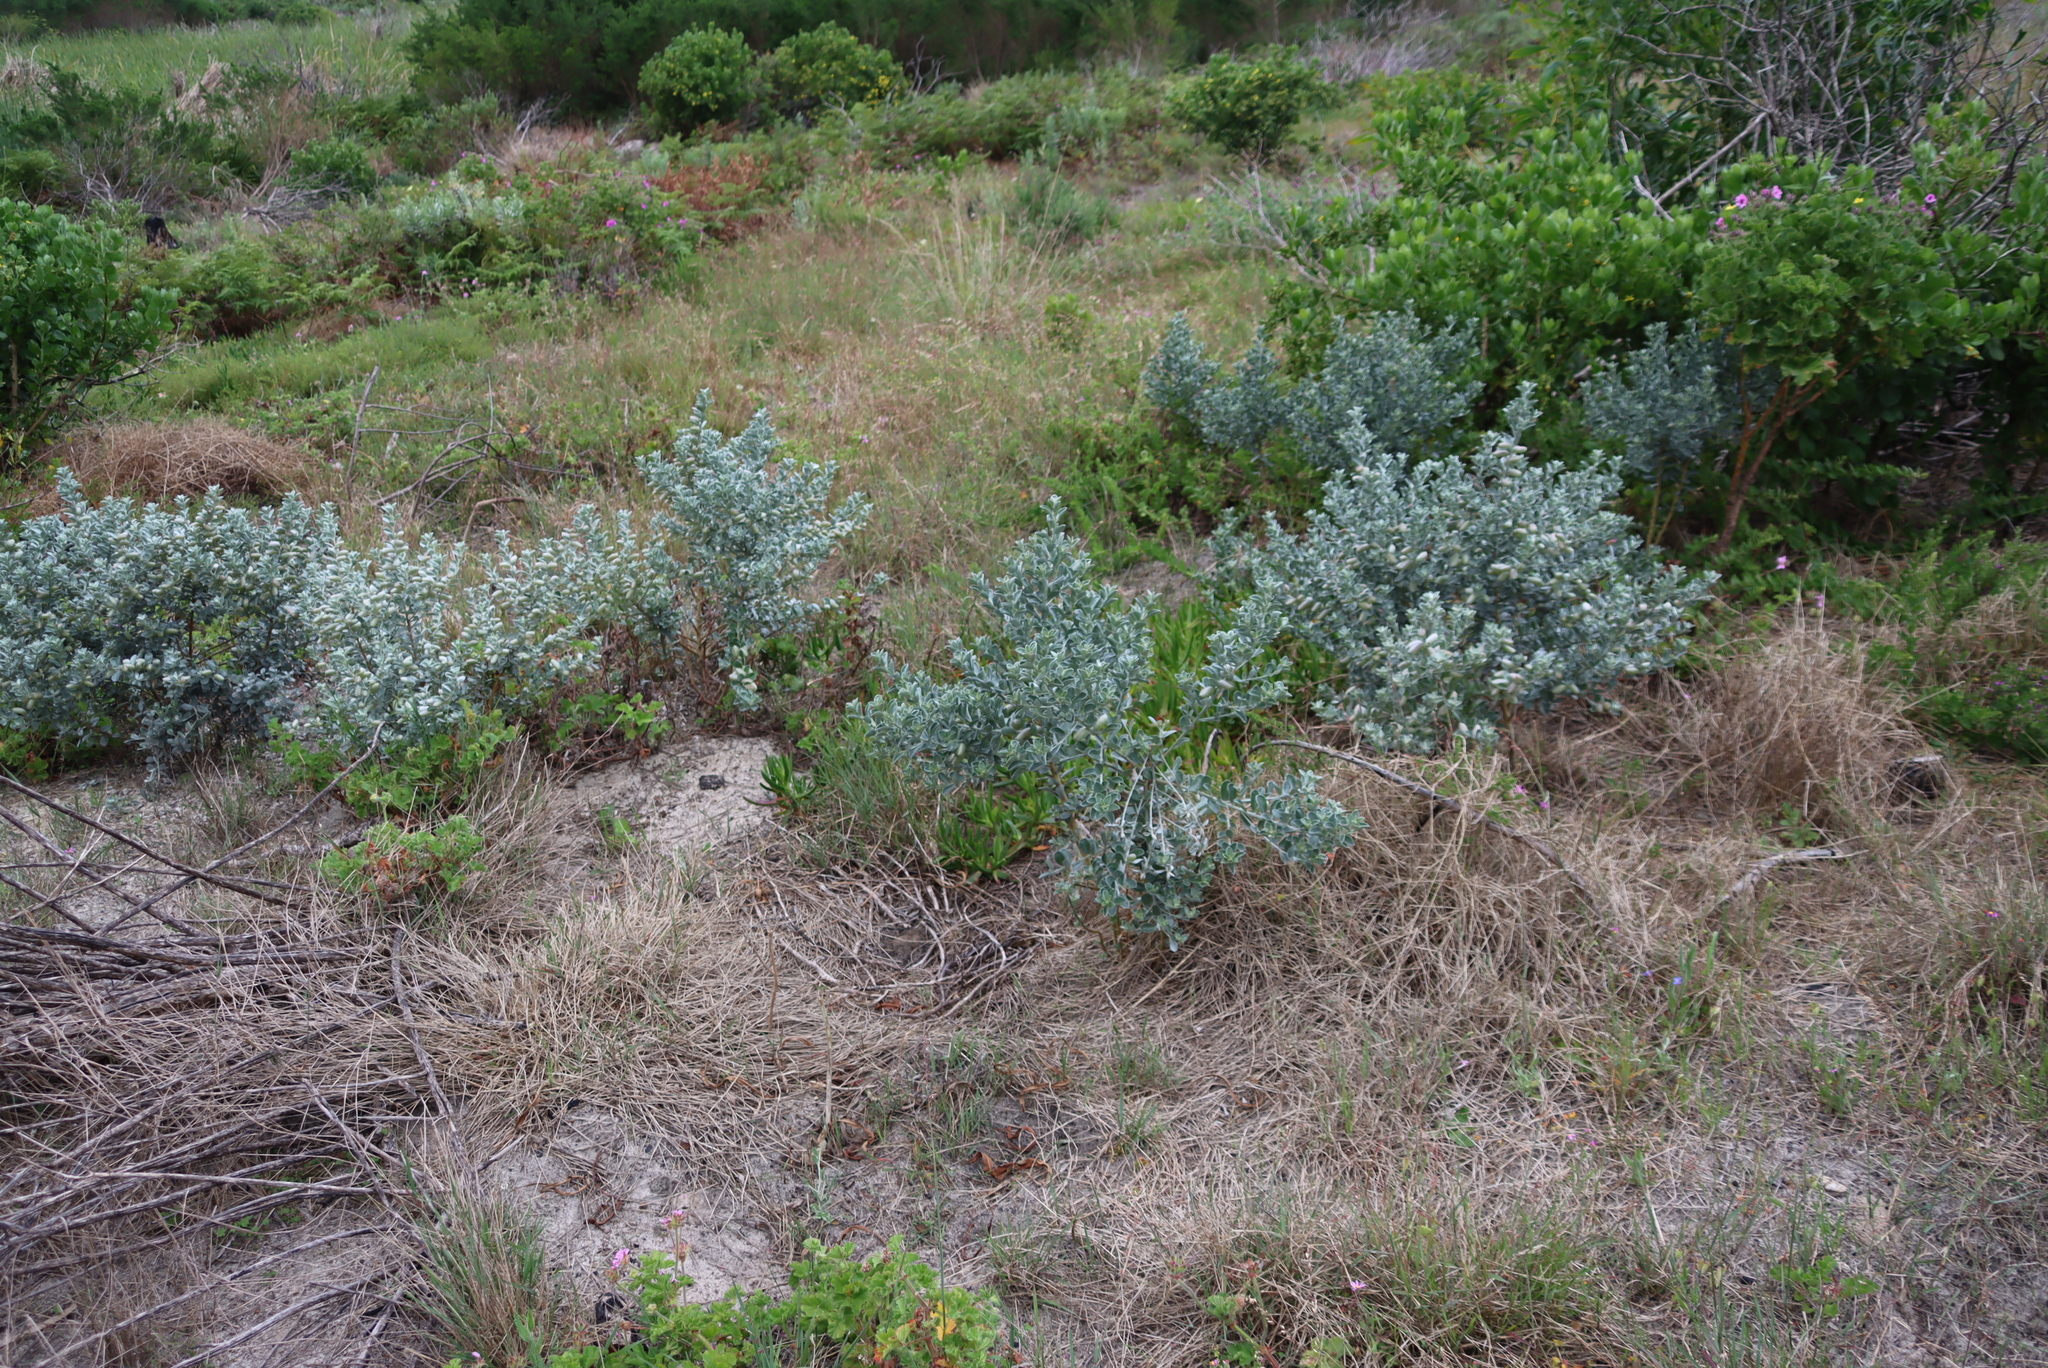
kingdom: Plantae
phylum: Tracheophyta
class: Magnoliopsida
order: Fabales
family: Fabaceae
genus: Podalyria
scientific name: Podalyria sericea
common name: Silver podalyria
